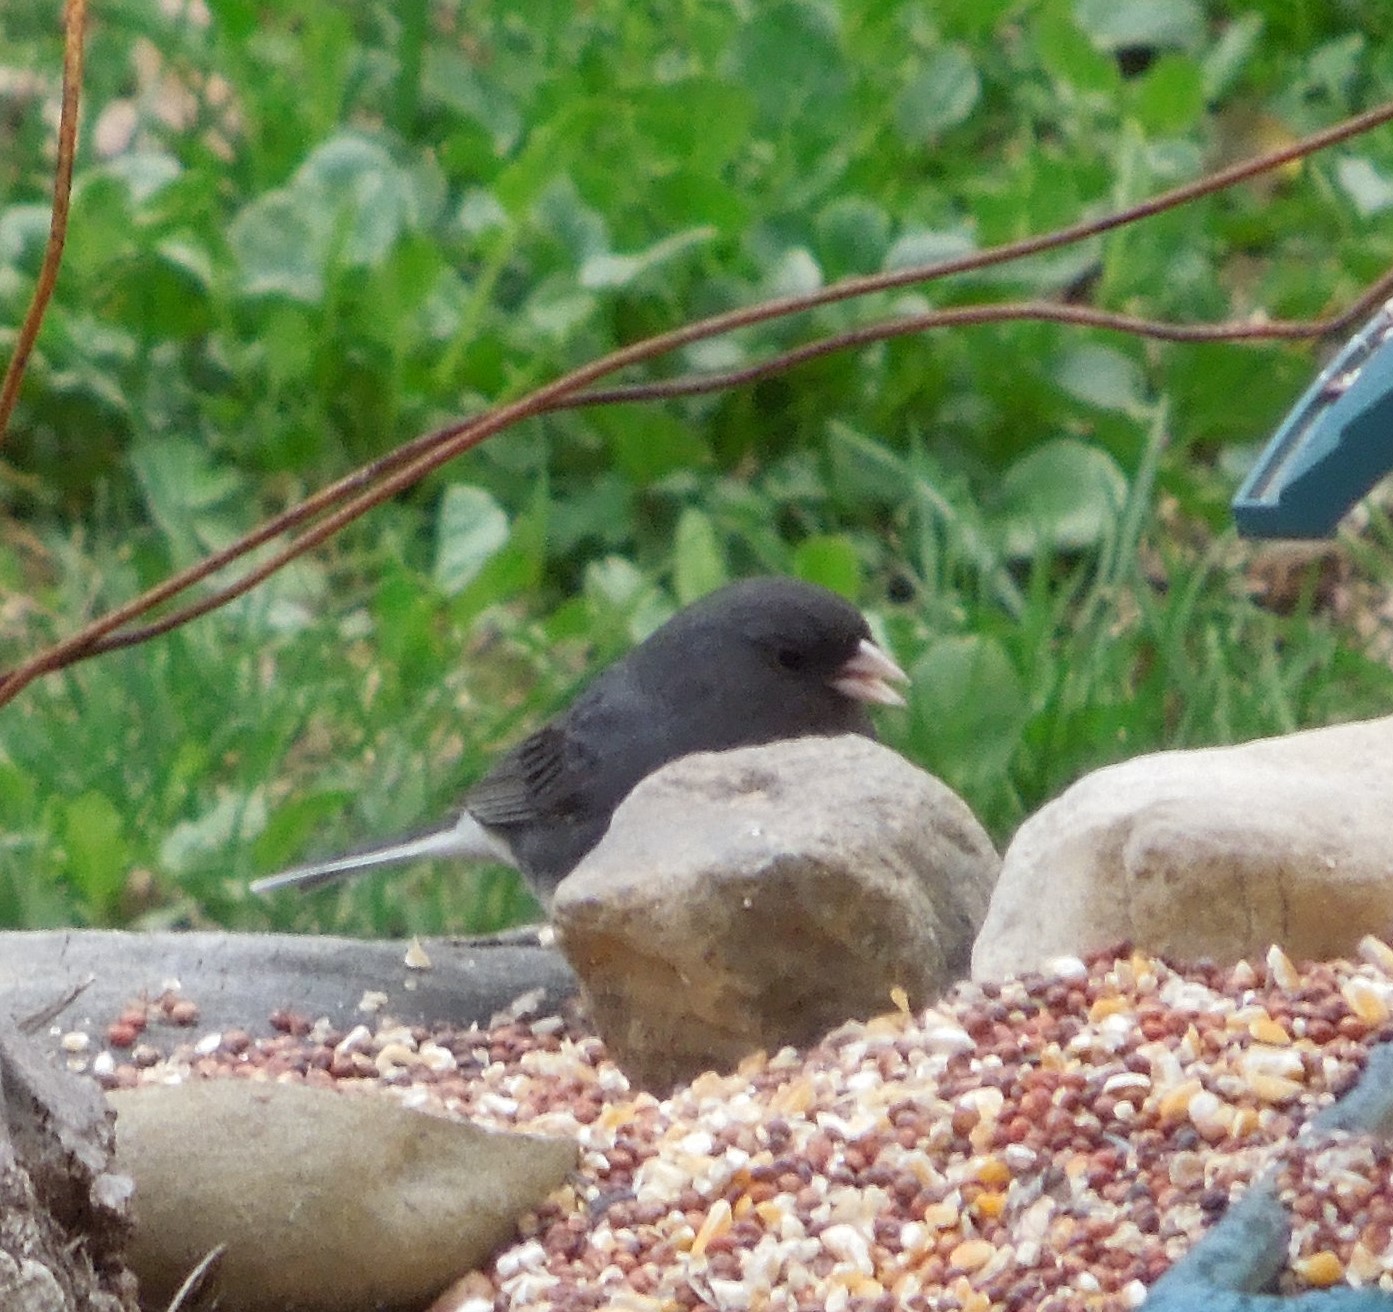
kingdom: Animalia
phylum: Chordata
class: Aves
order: Passeriformes
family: Passerellidae
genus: Junco
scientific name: Junco hyemalis
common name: Dark-eyed junco
